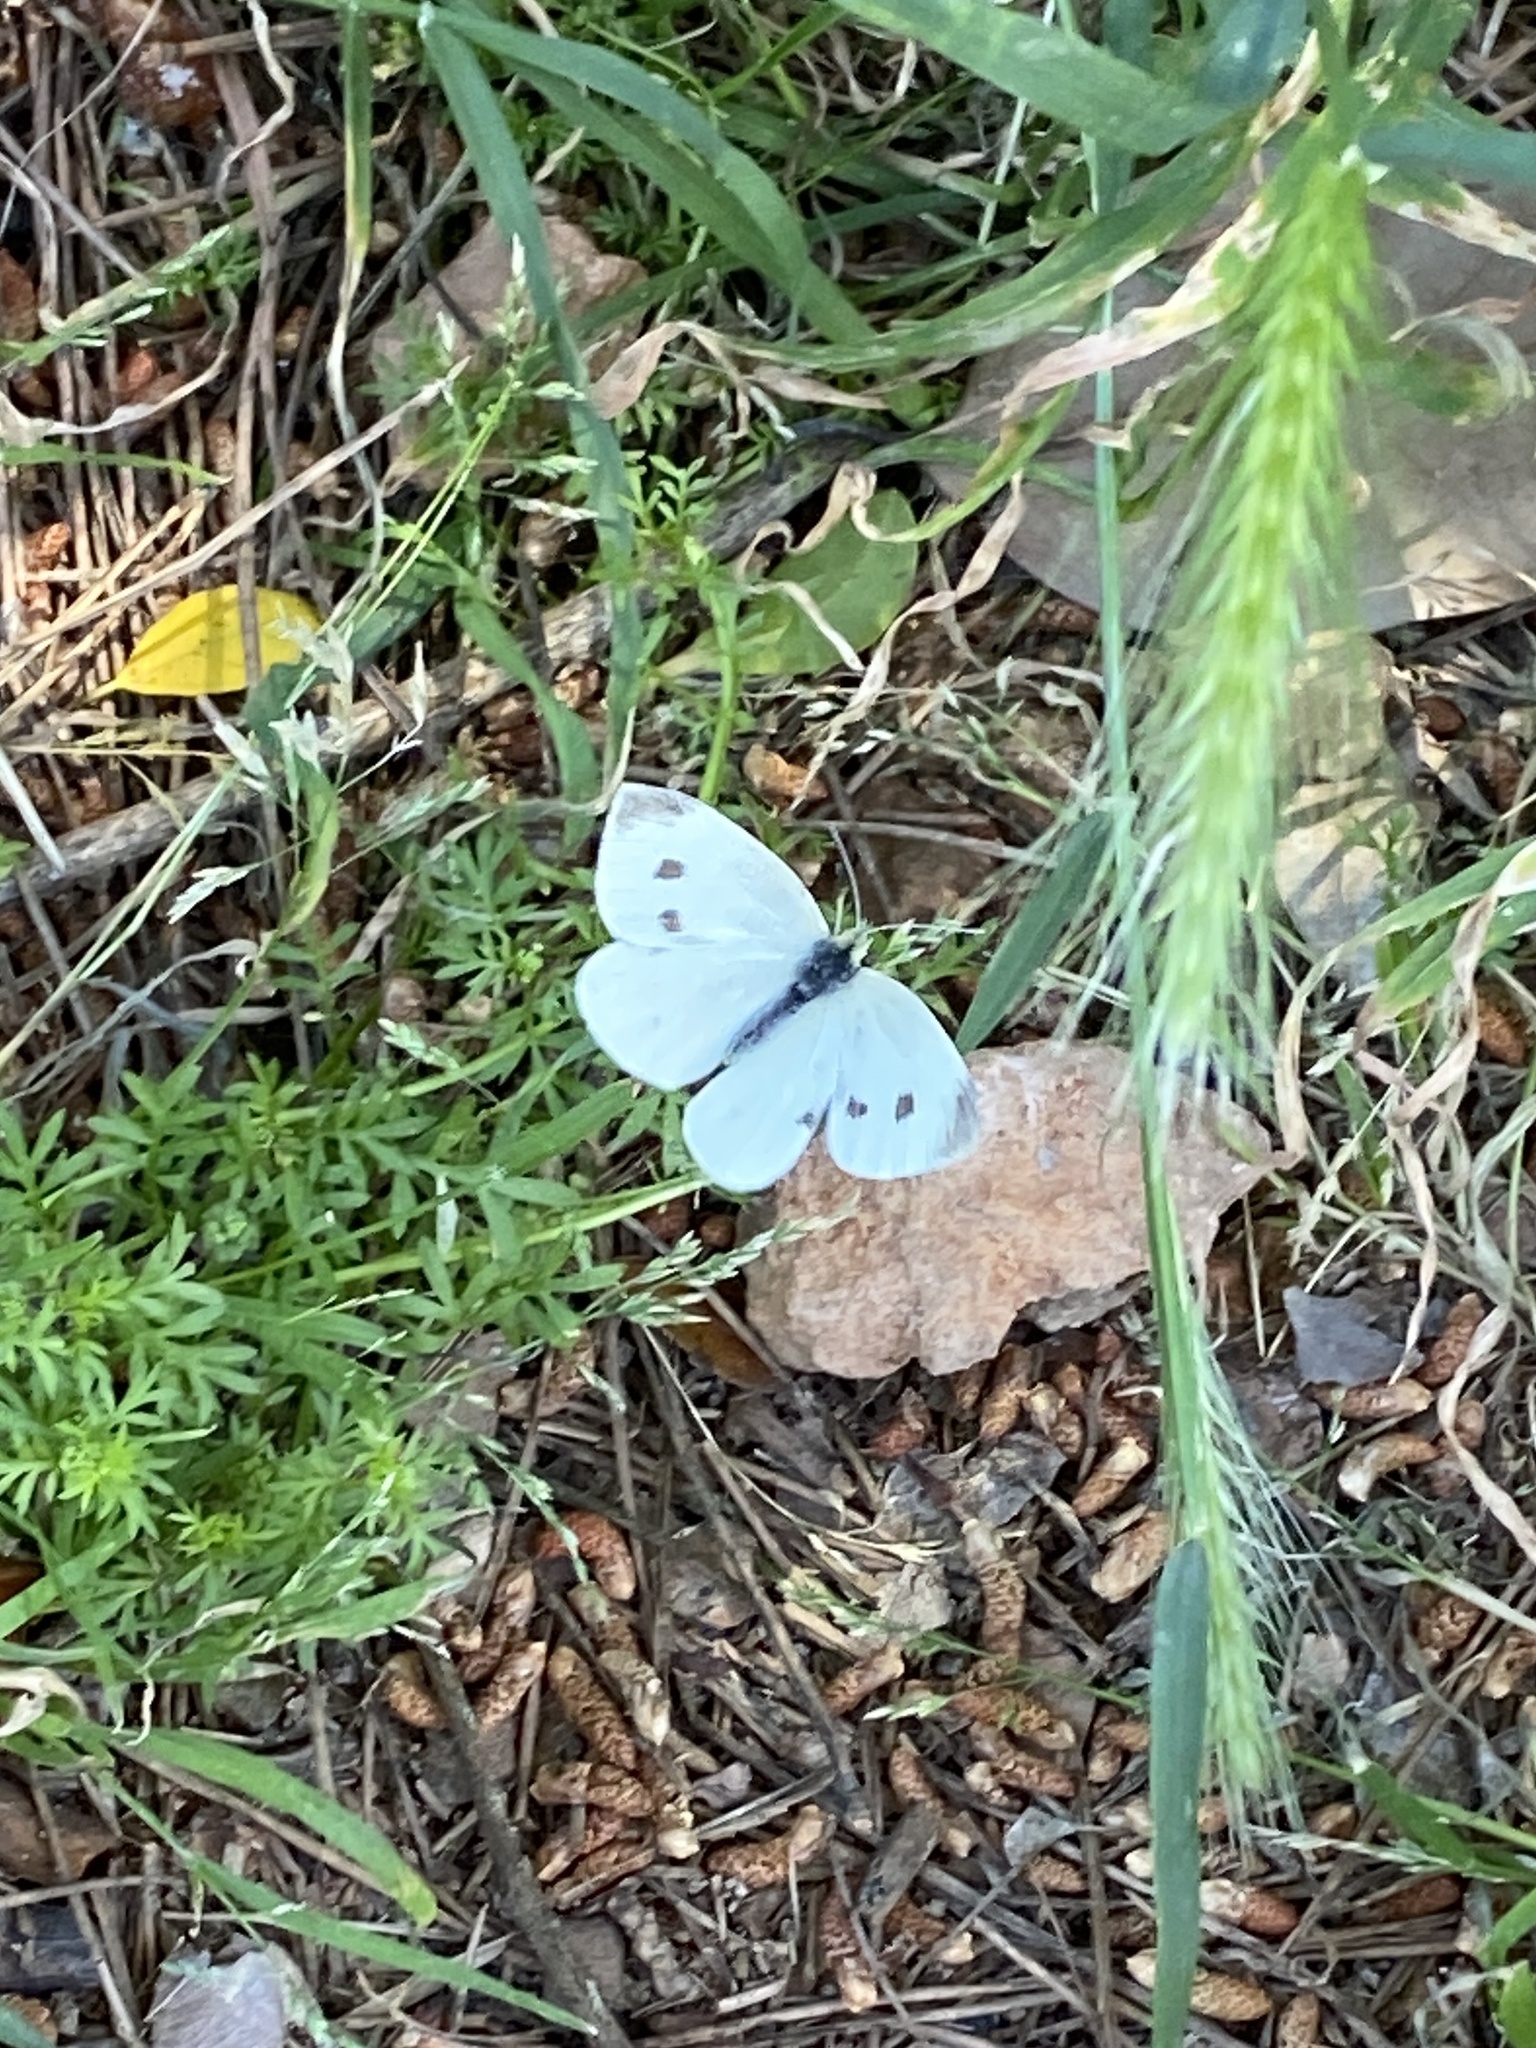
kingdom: Animalia
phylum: Arthropoda
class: Insecta
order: Lepidoptera
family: Pieridae
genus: Pieris
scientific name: Pieris rapae
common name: Small white
